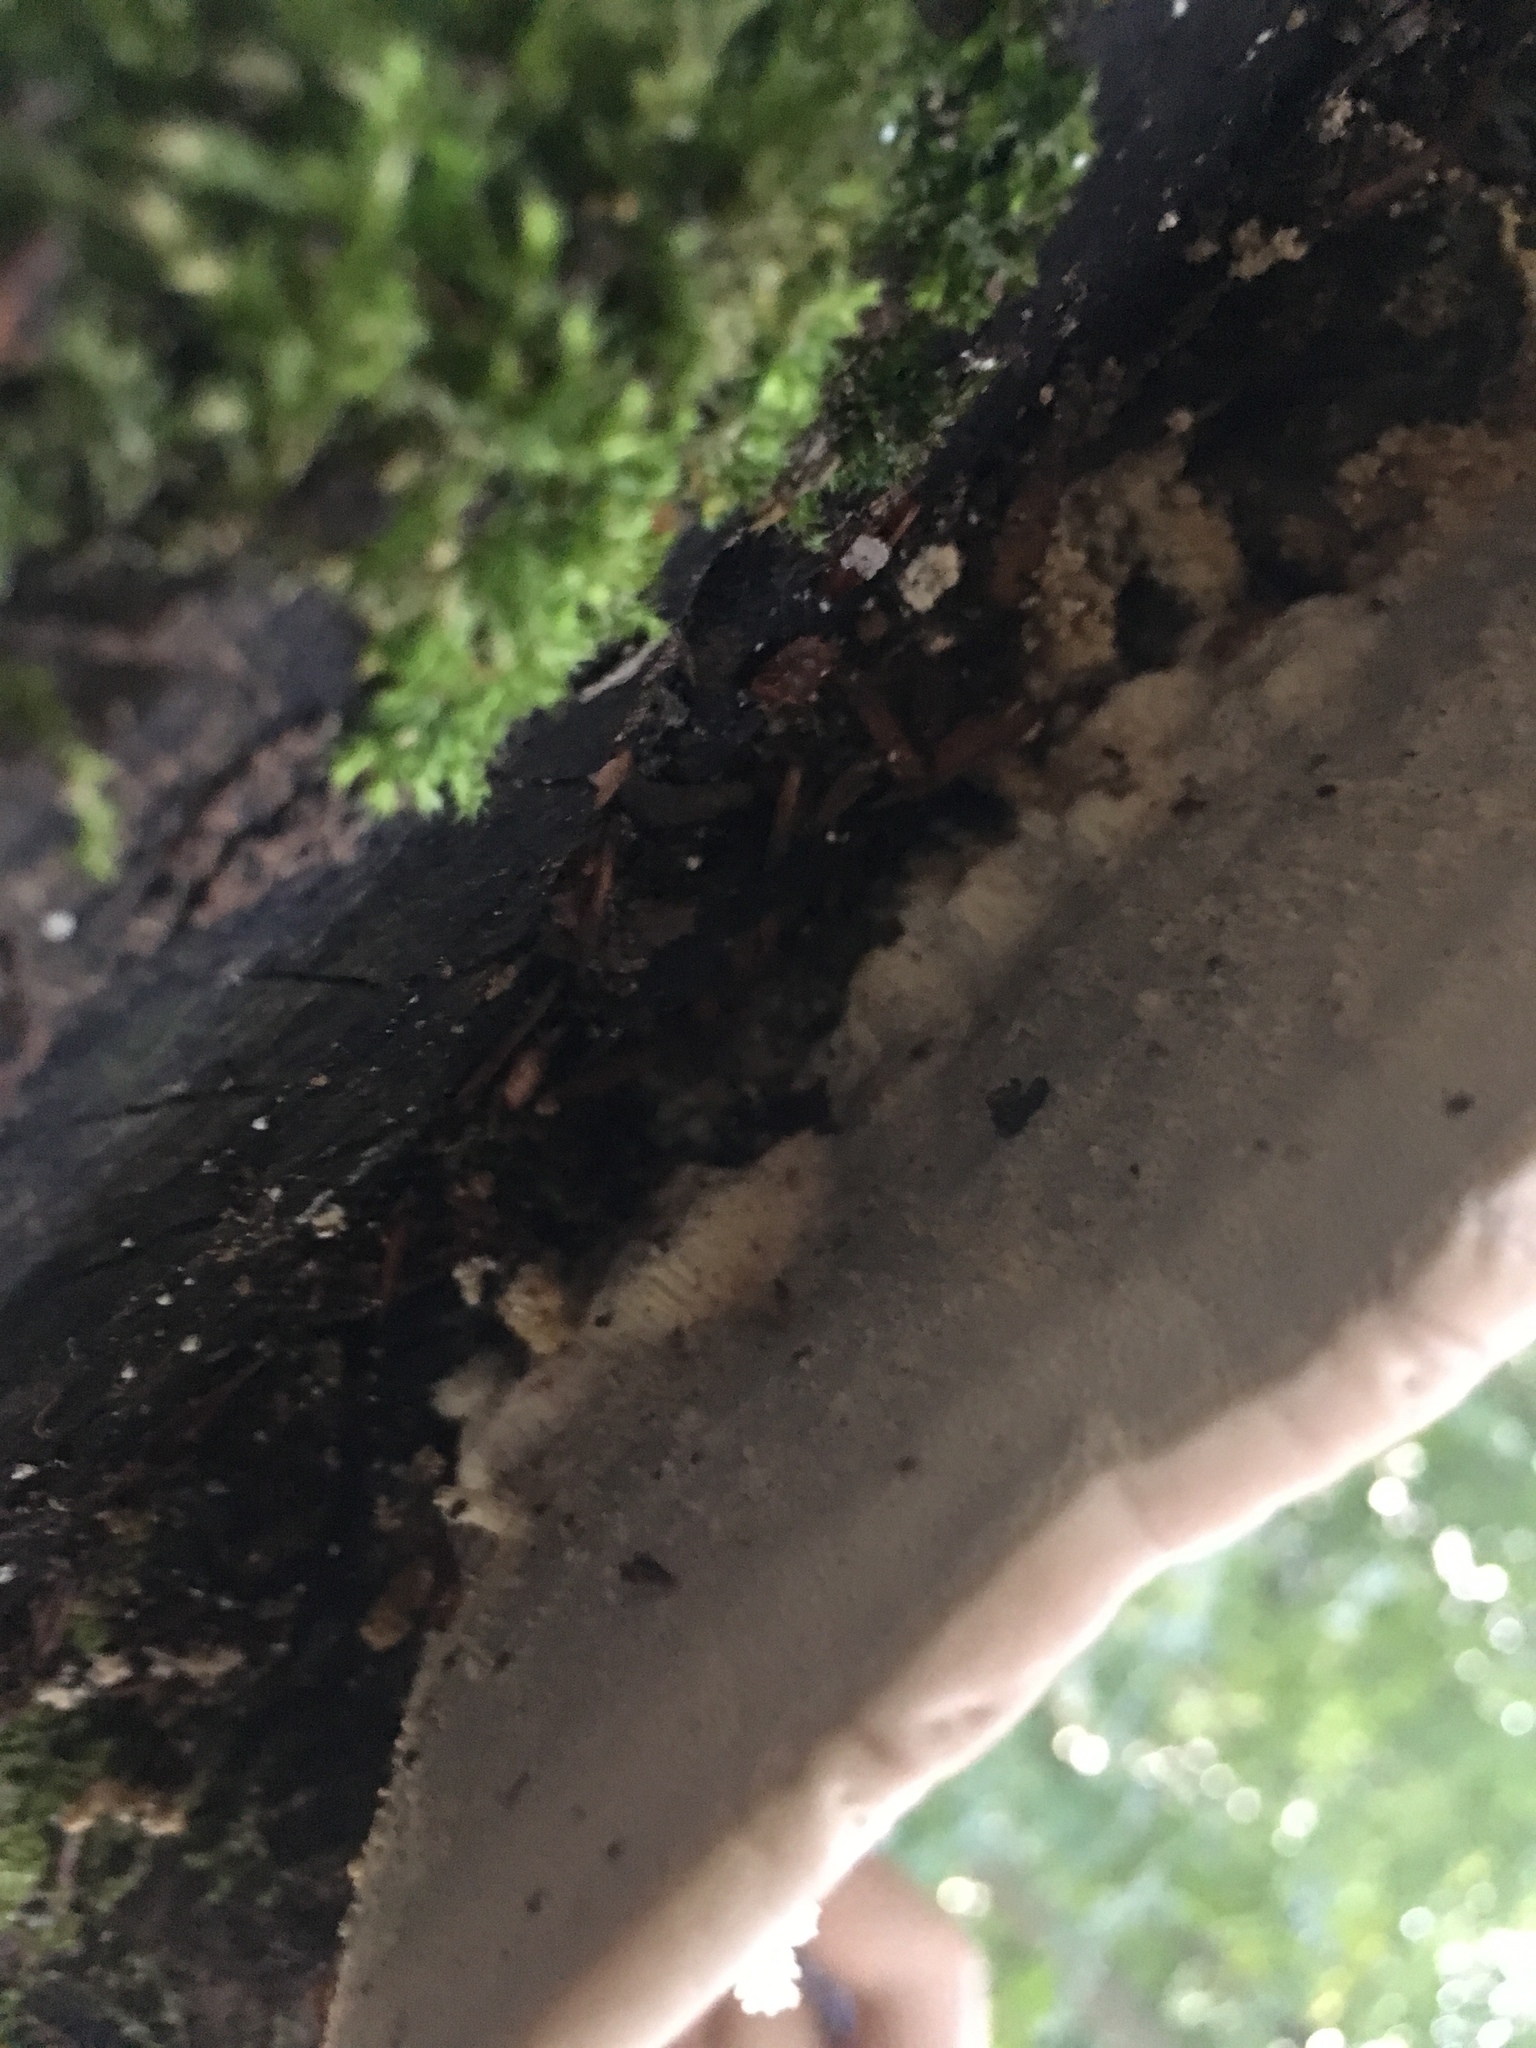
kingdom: Fungi
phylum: Basidiomycota
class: Agaricomycetes
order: Polyporales
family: Polyporaceae
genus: Trametes
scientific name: Trametes gibbosa
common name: Lumpy bracket
